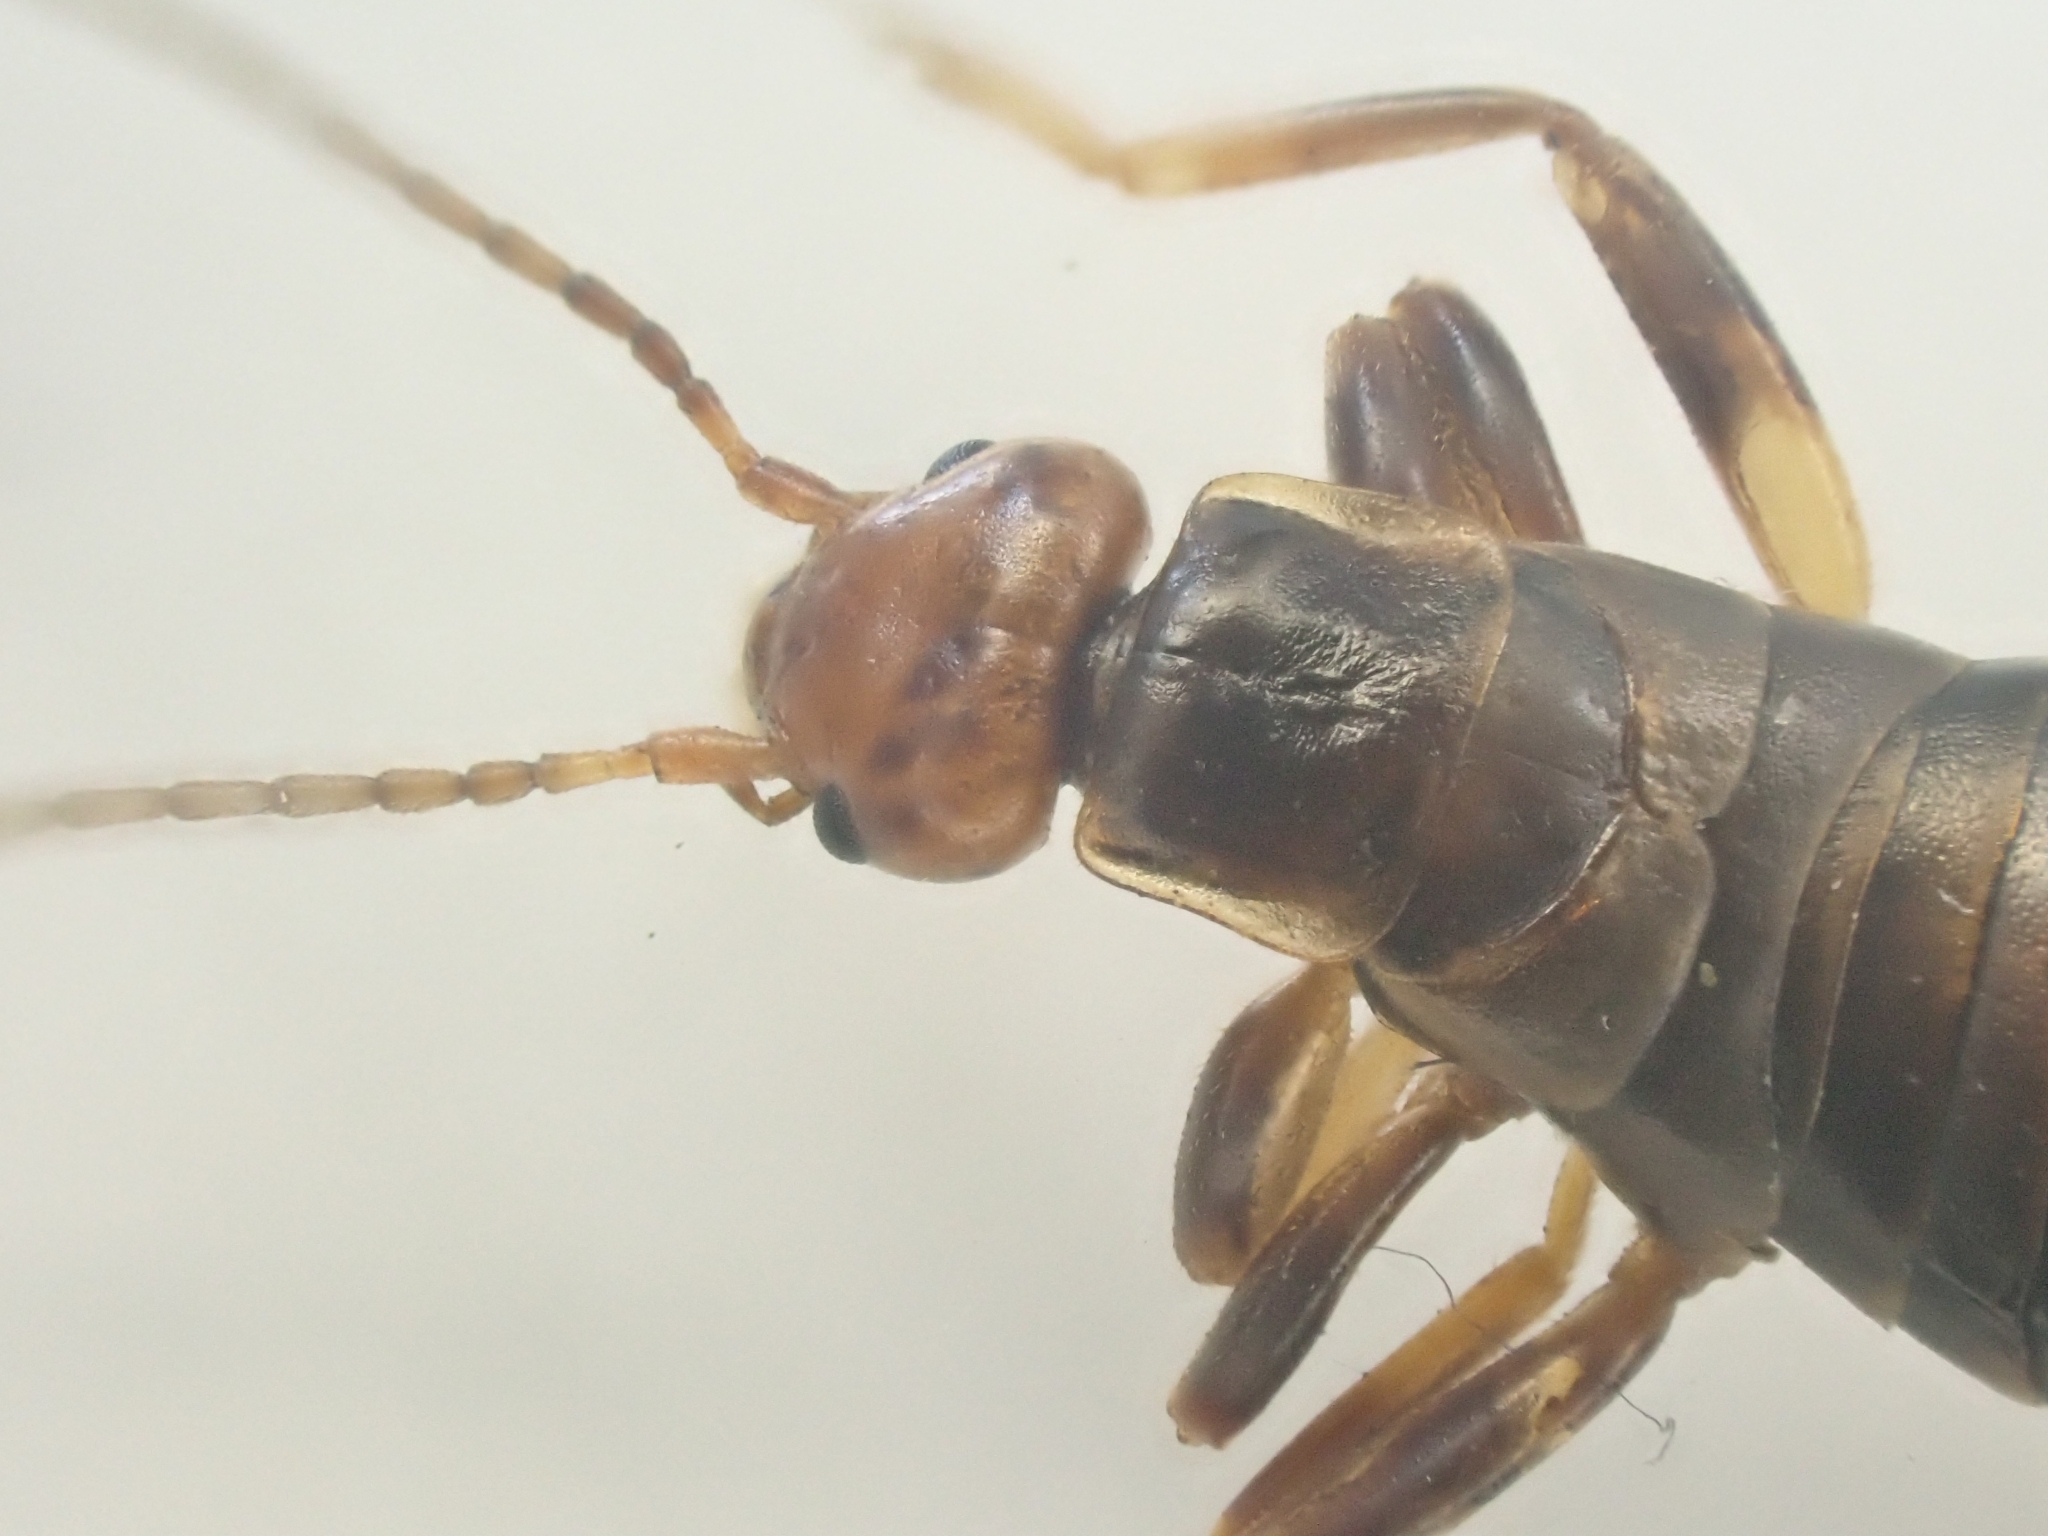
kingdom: Animalia
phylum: Arthropoda
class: Insecta
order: Dermaptera
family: Forficulidae
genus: Chelidurella
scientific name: Chelidurella acanthopygia
